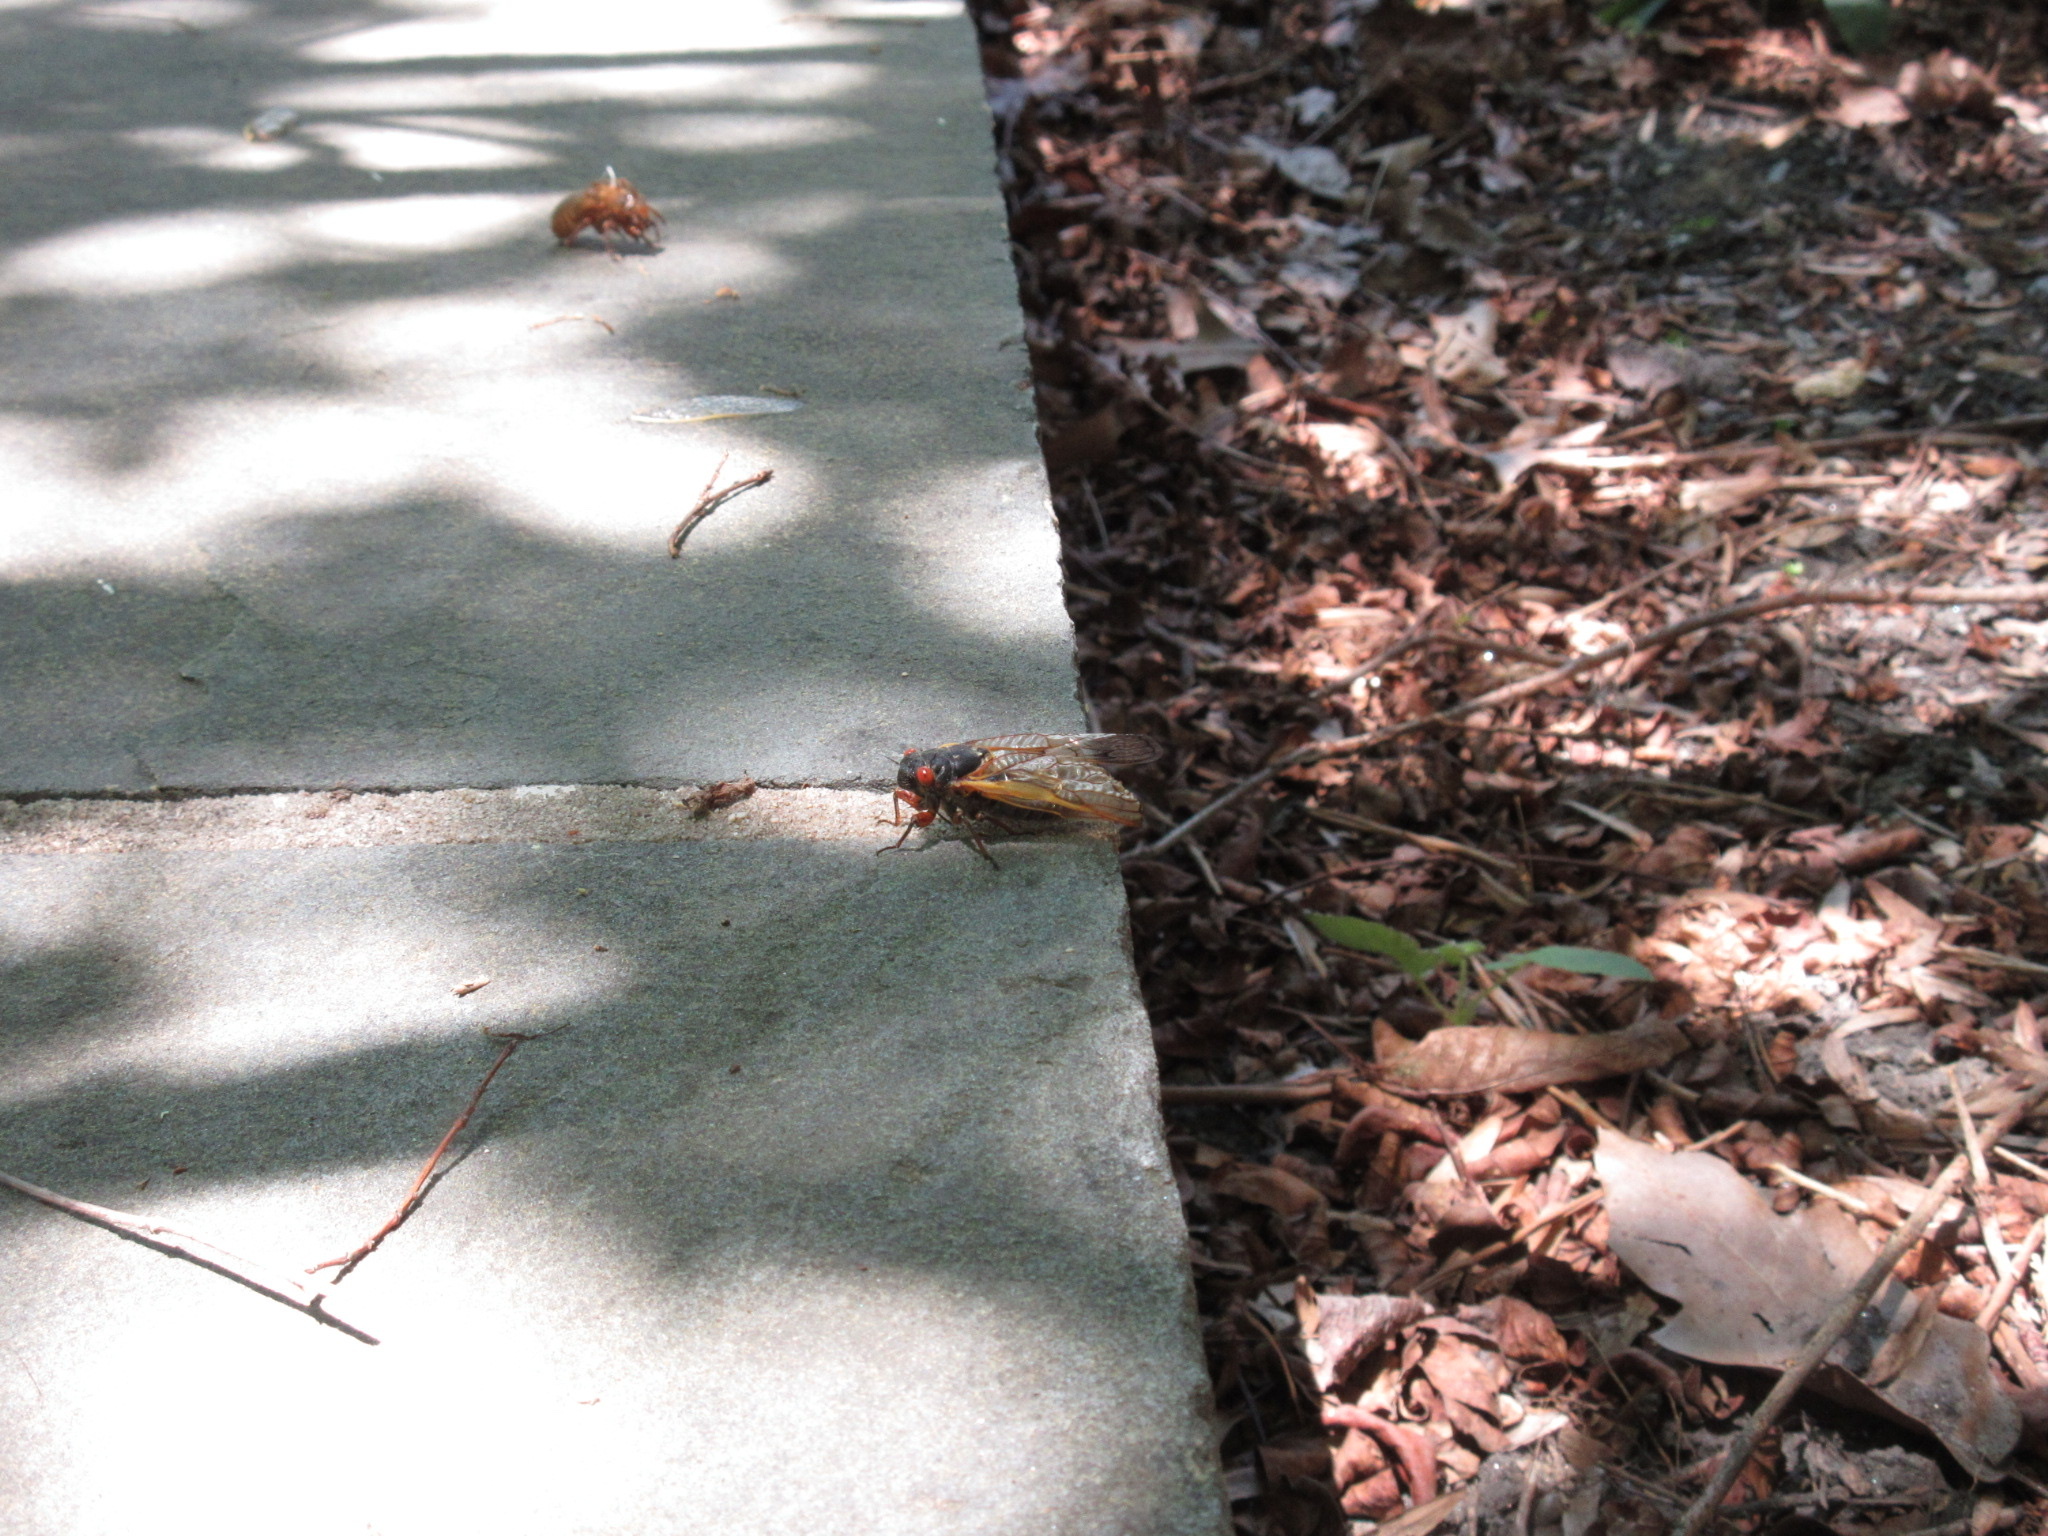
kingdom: Animalia
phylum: Arthropoda
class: Insecta
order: Hemiptera
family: Cicadidae
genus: Magicicada
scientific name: Magicicada septendecim
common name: Periodical cicada
